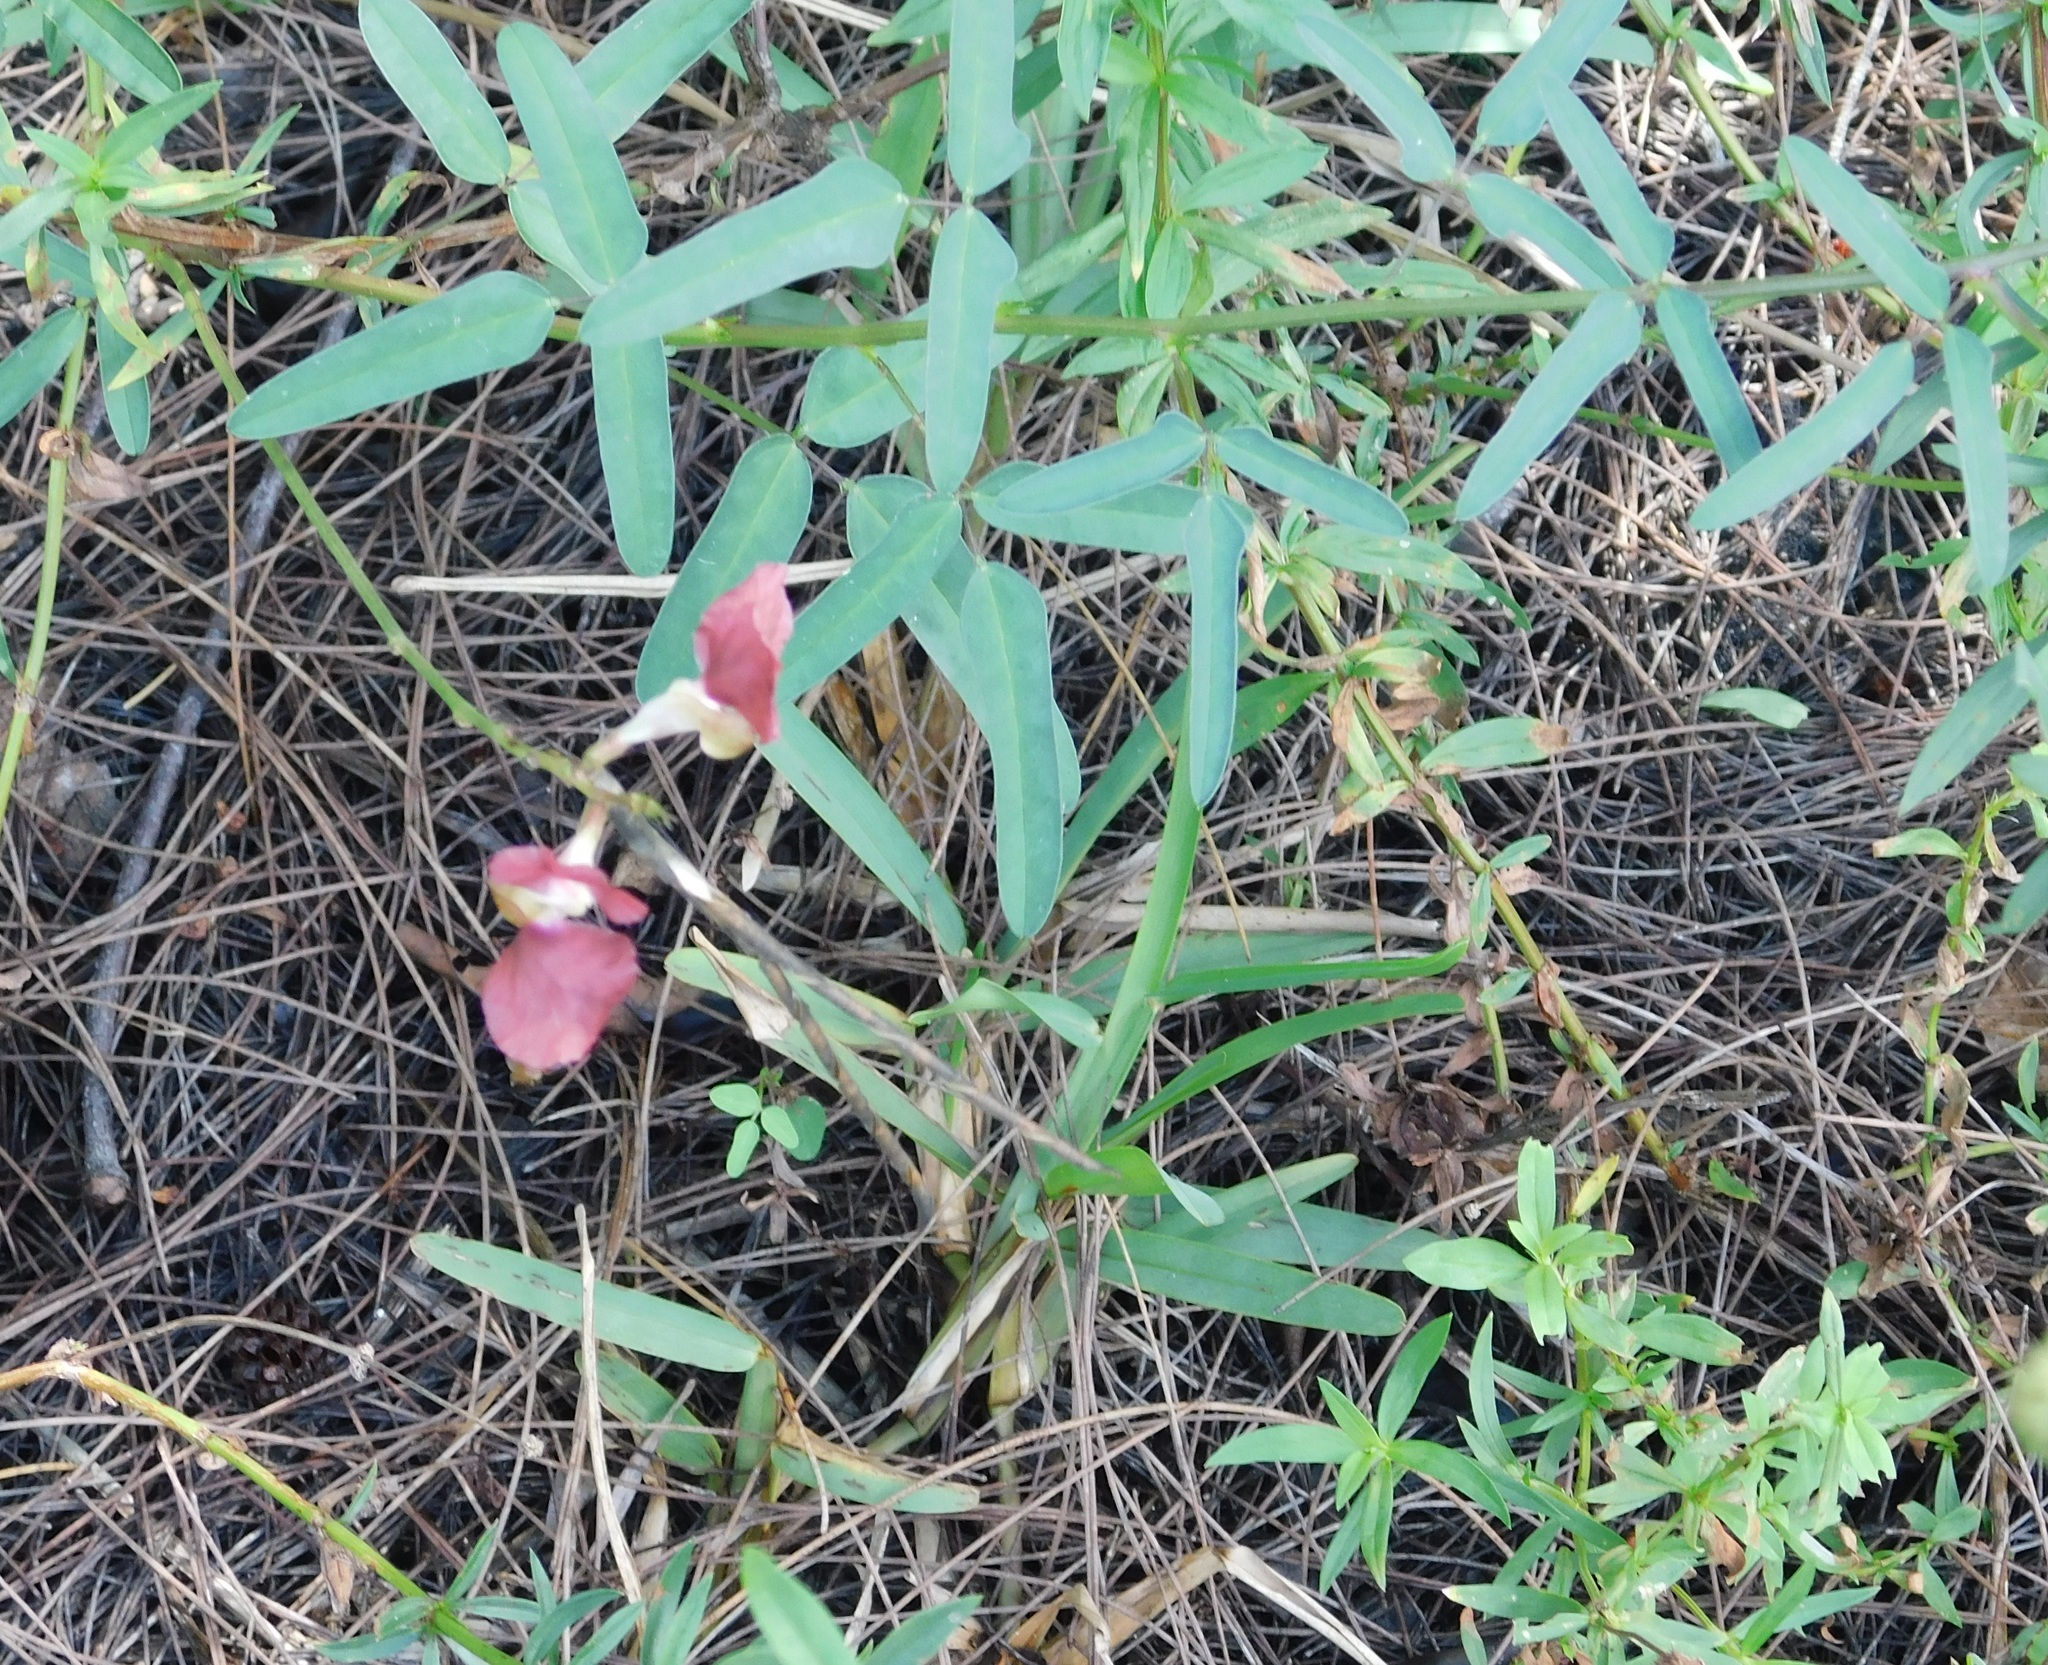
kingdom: Plantae
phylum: Tracheophyta
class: Magnoliopsida
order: Fabales
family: Fabaceae
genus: Macroptilium
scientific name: Macroptilium lathyroides
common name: Wild bushbean
